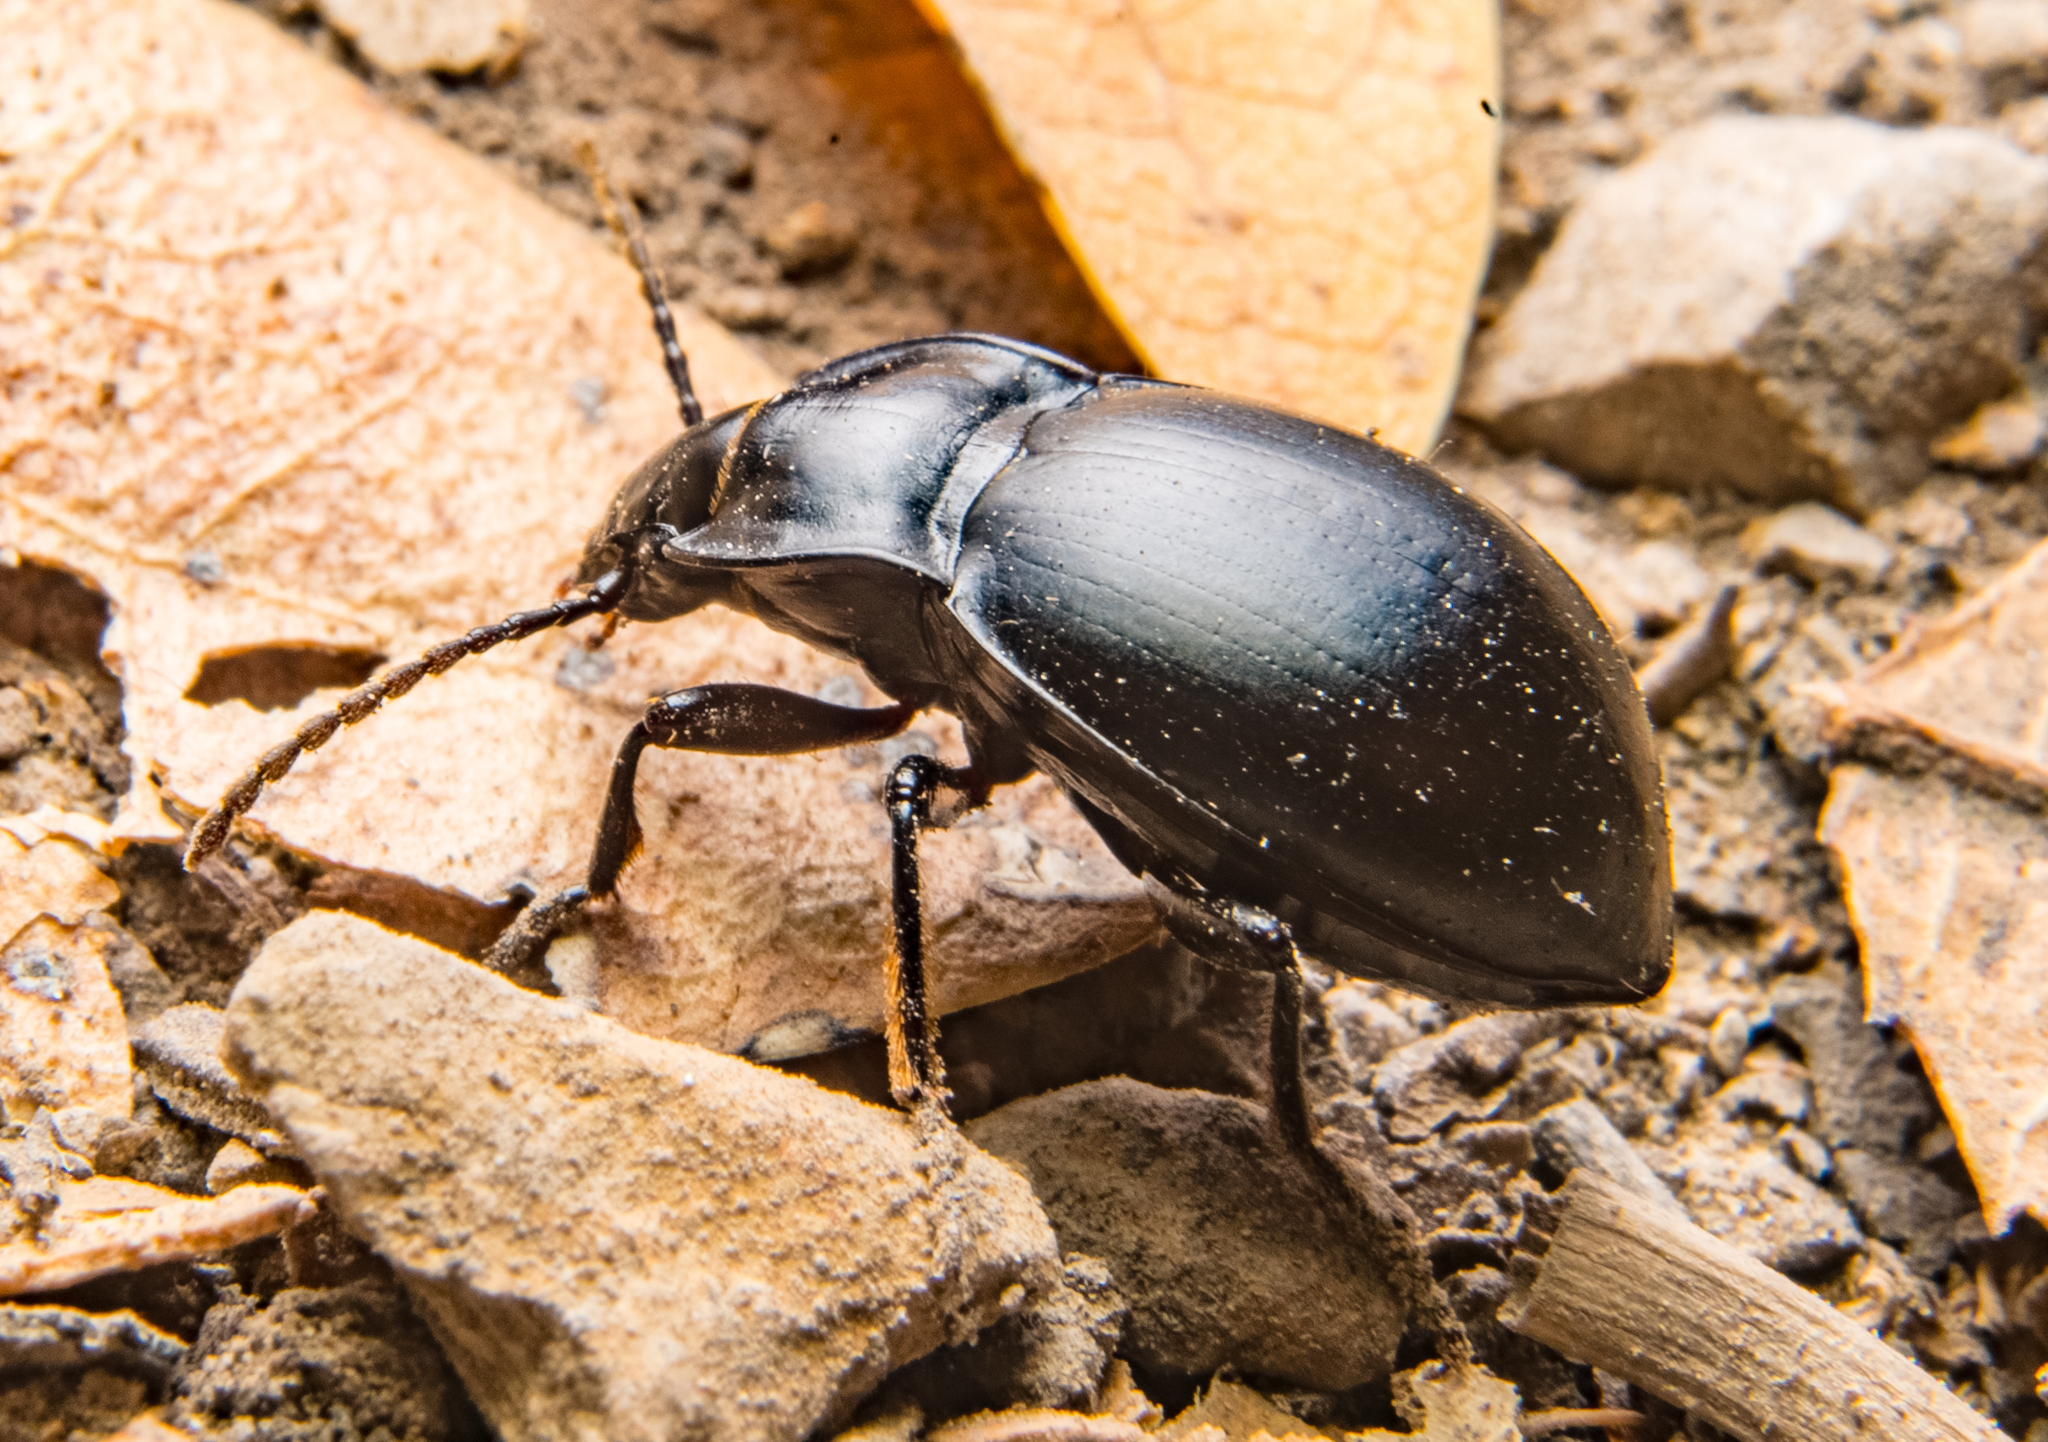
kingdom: Animalia
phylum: Arthropoda
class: Insecta
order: Coleoptera
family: Carabidae
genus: Metrius
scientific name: Metrius contractus
